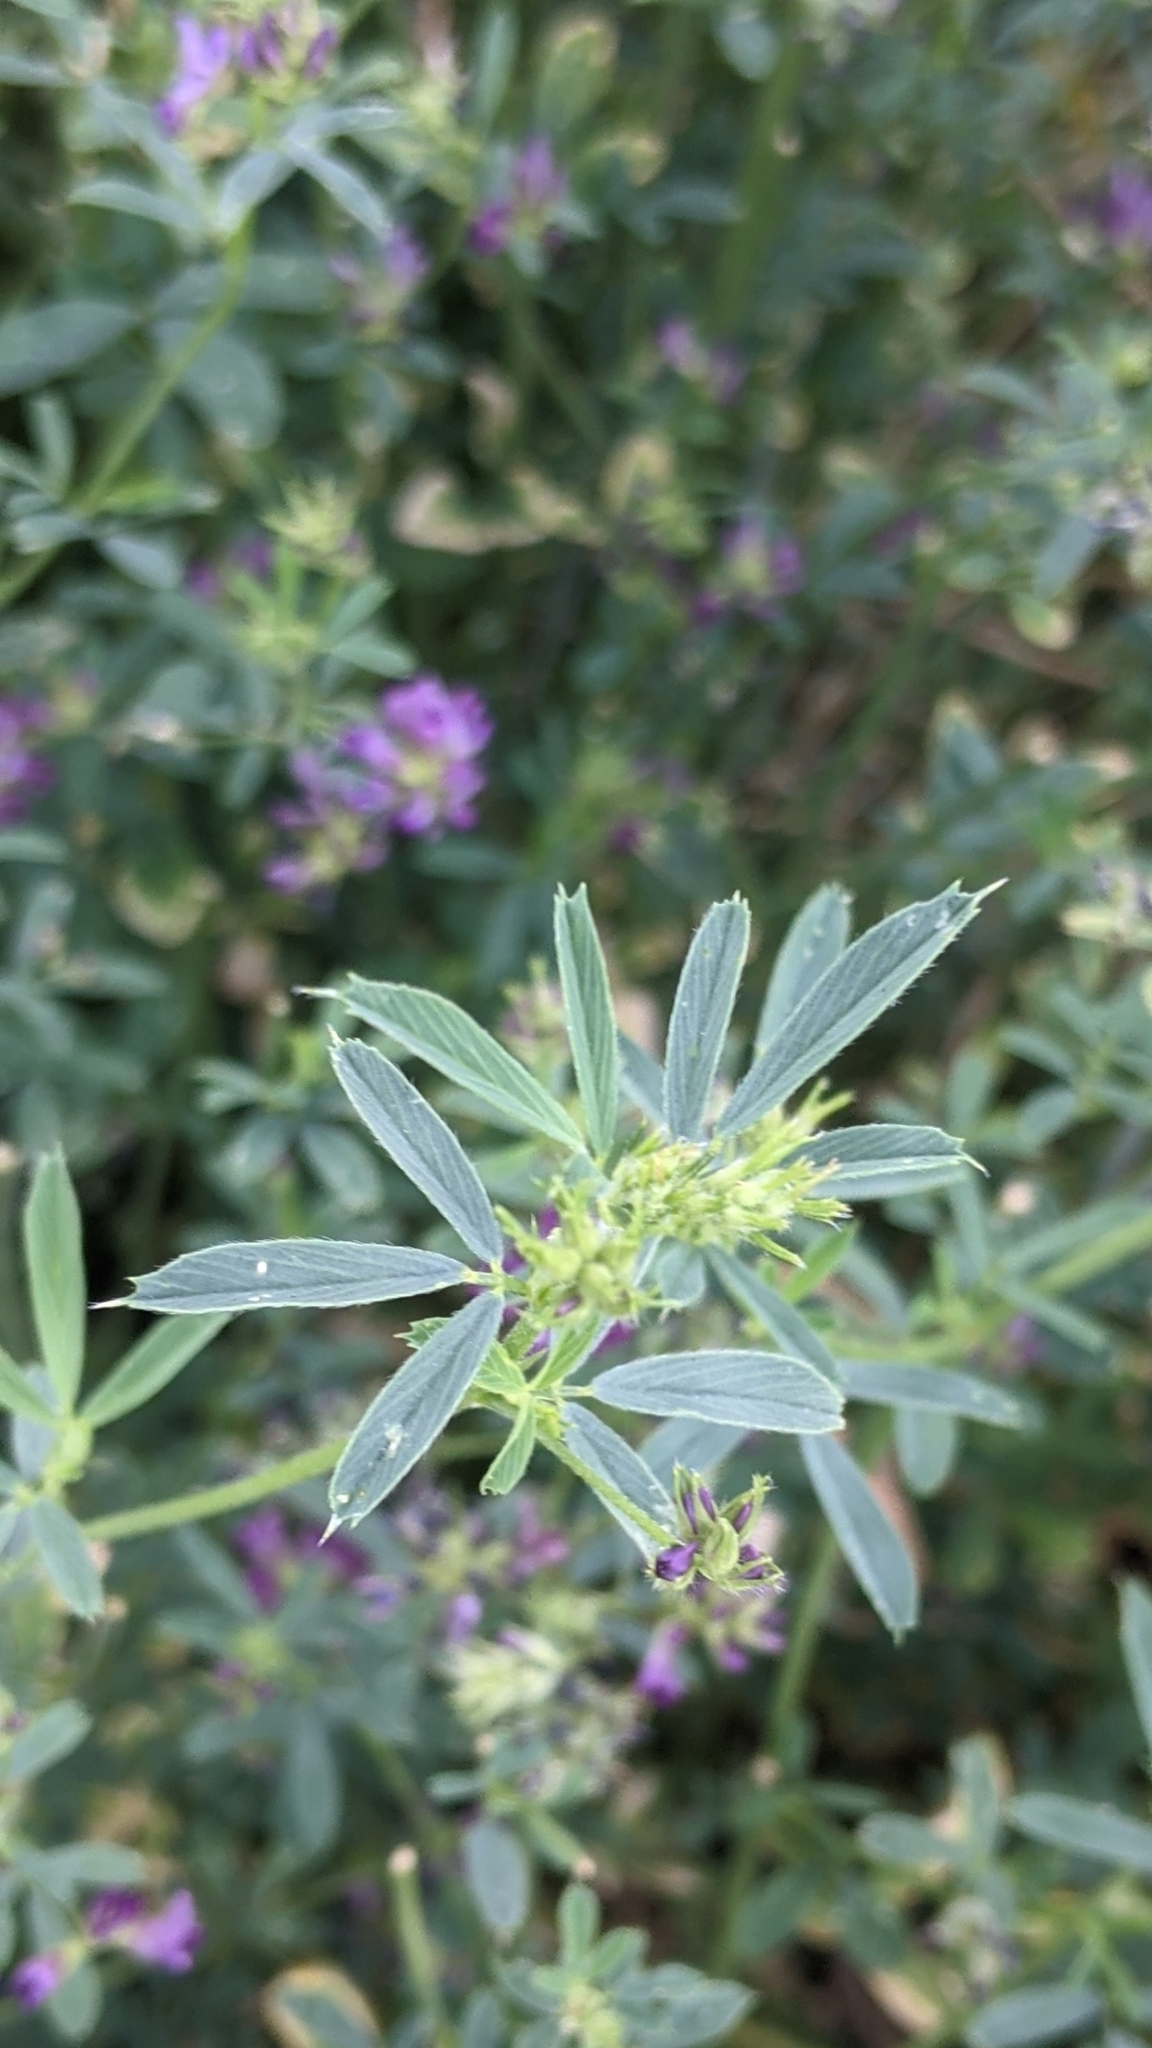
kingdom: Plantae
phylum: Tracheophyta
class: Magnoliopsida
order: Fabales
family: Fabaceae
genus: Medicago
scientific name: Medicago sativa
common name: Alfalfa
